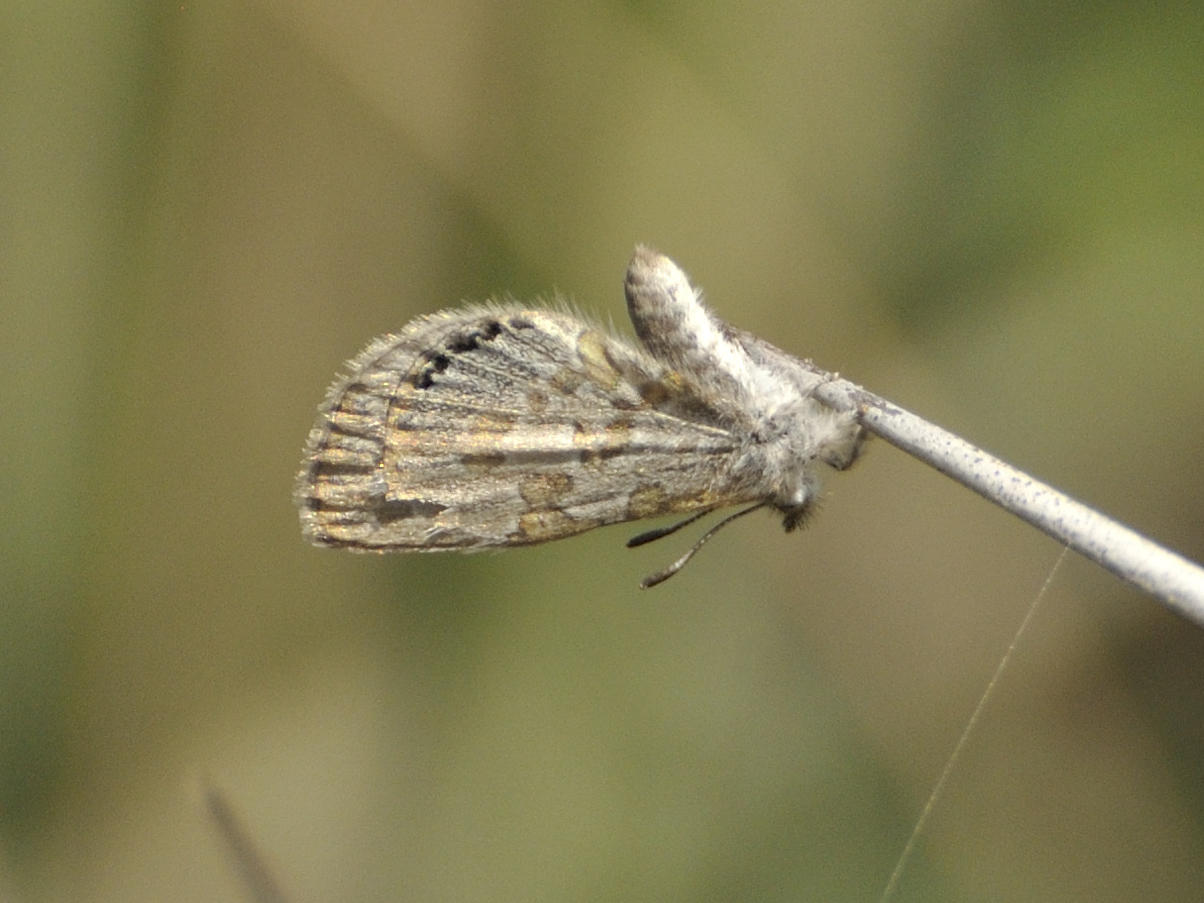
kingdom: Animalia
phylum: Arthropoda
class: Insecta
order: Lepidoptera
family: Lycaenidae
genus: Lachnocnema
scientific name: Lachnocnema durbani
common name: D'urban's woolly legs
